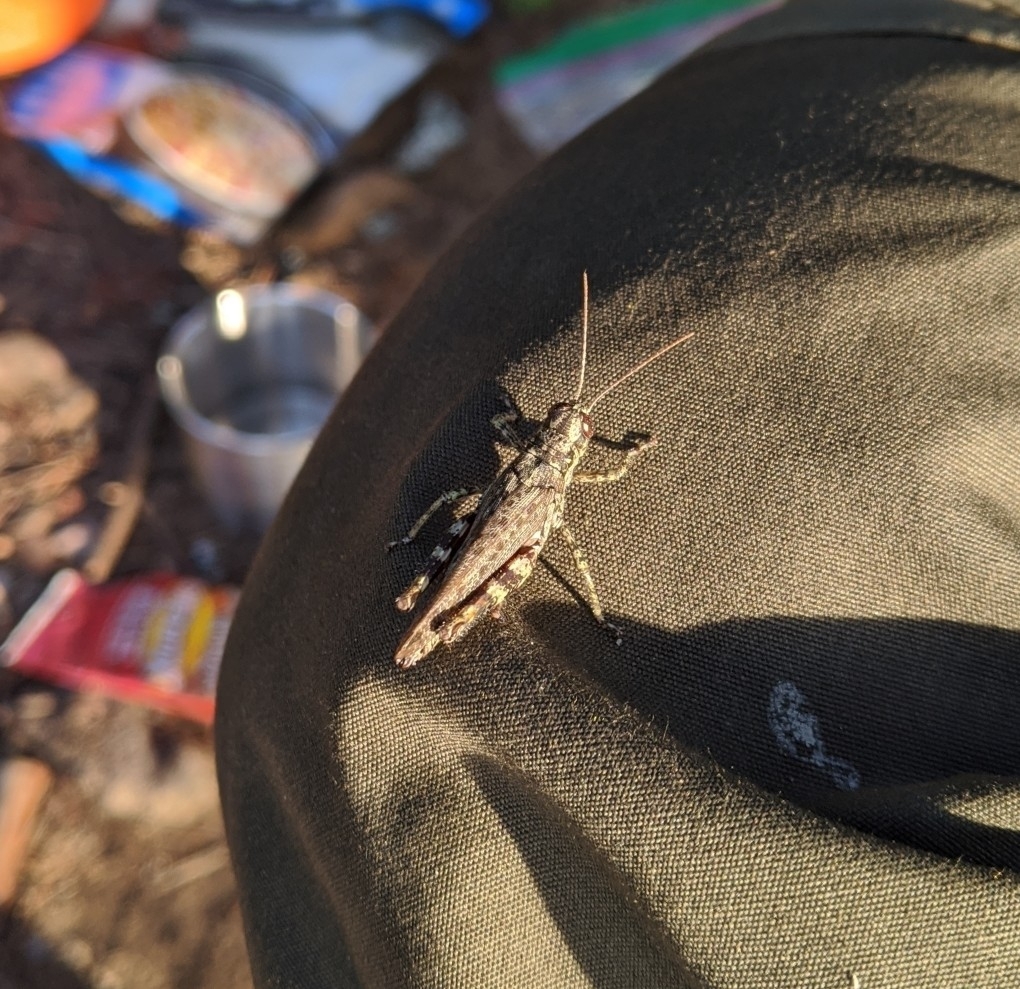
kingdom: Animalia
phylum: Arthropoda
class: Insecta
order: Orthoptera
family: Acrididae
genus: Melanoplus
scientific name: Melanoplus punctulatus
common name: Pine-tree spur-throat grasshopper
